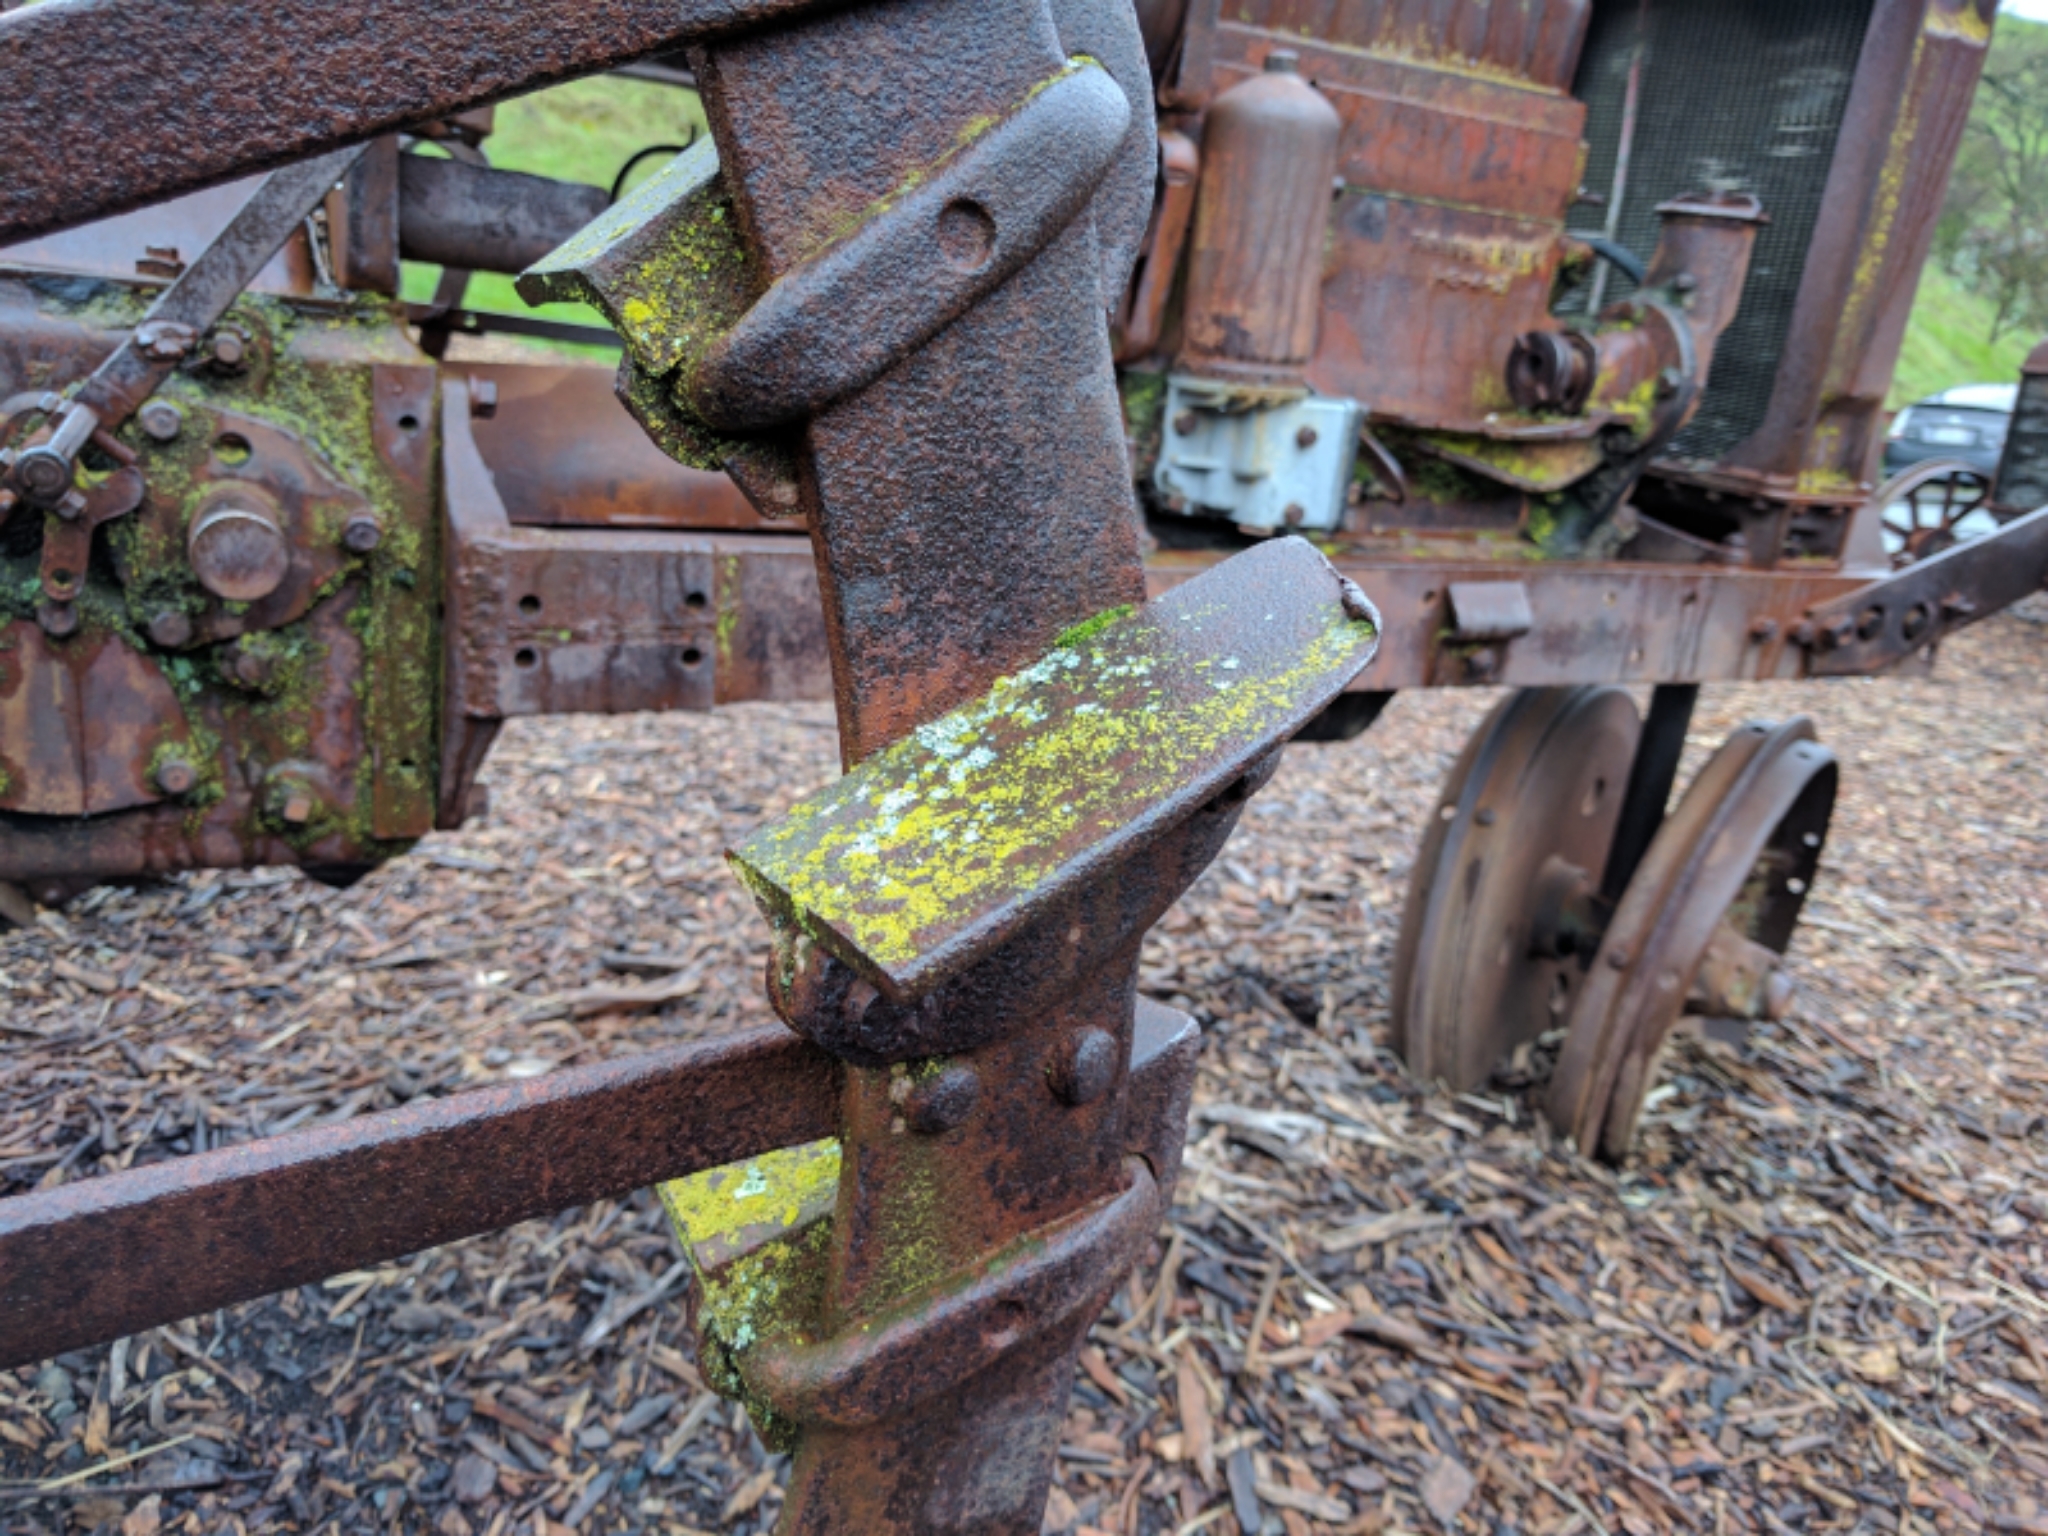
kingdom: Fungi
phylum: Ascomycota
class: Lecanoromycetes
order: Caliciales
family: Physciaceae
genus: Physcia
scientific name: Physcia adscendens
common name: Hooded rosette lichen
